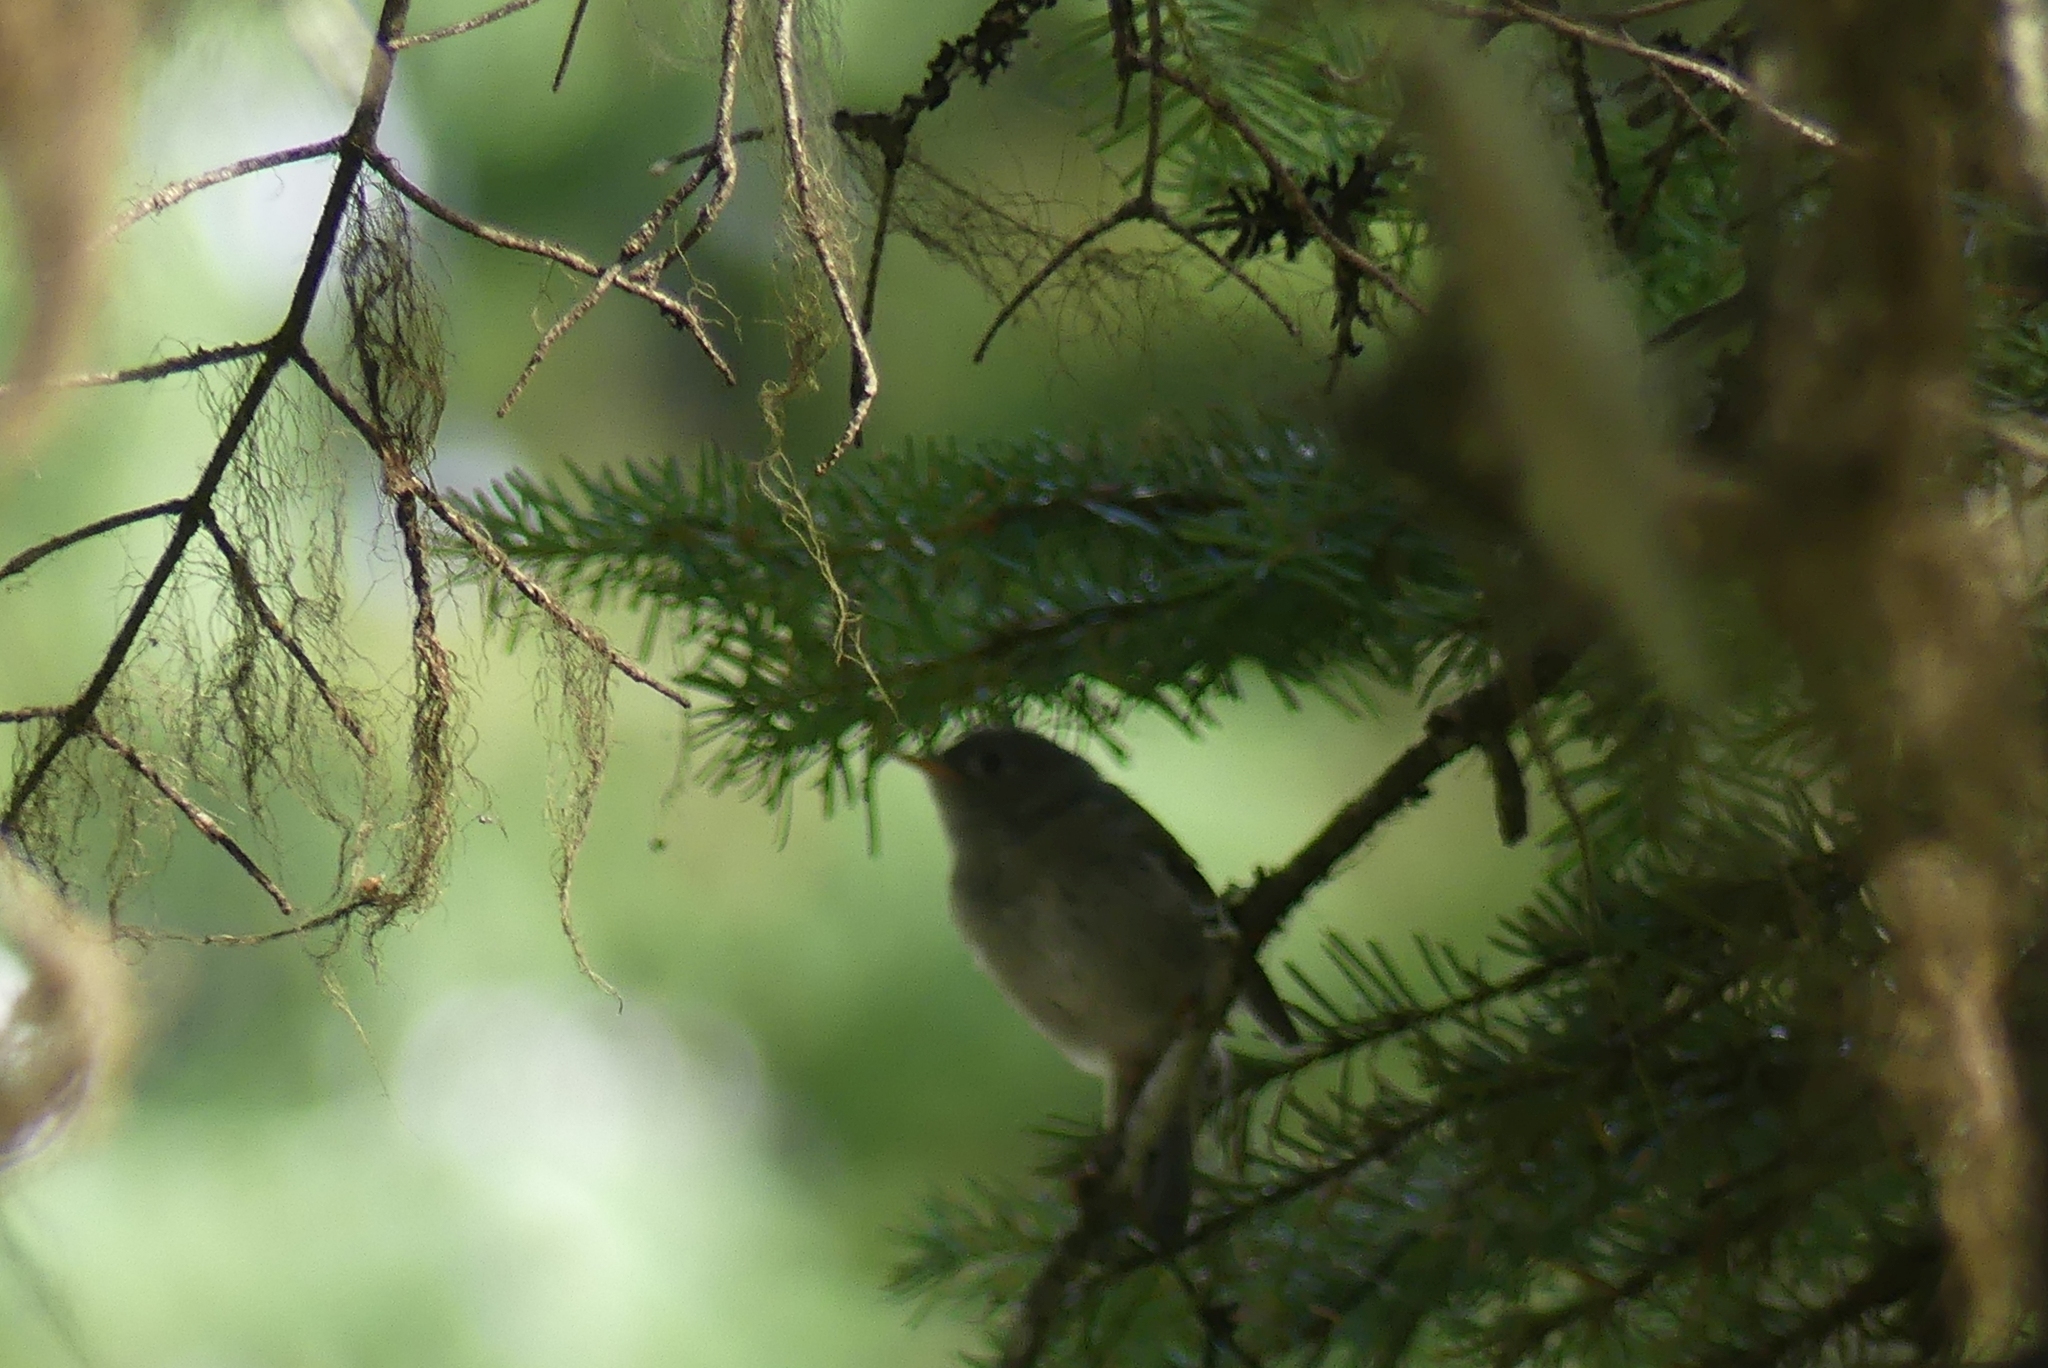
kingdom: Animalia
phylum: Chordata
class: Aves
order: Passeriformes
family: Regulidae
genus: Regulus
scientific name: Regulus calendula
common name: Ruby-crowned kinglet
